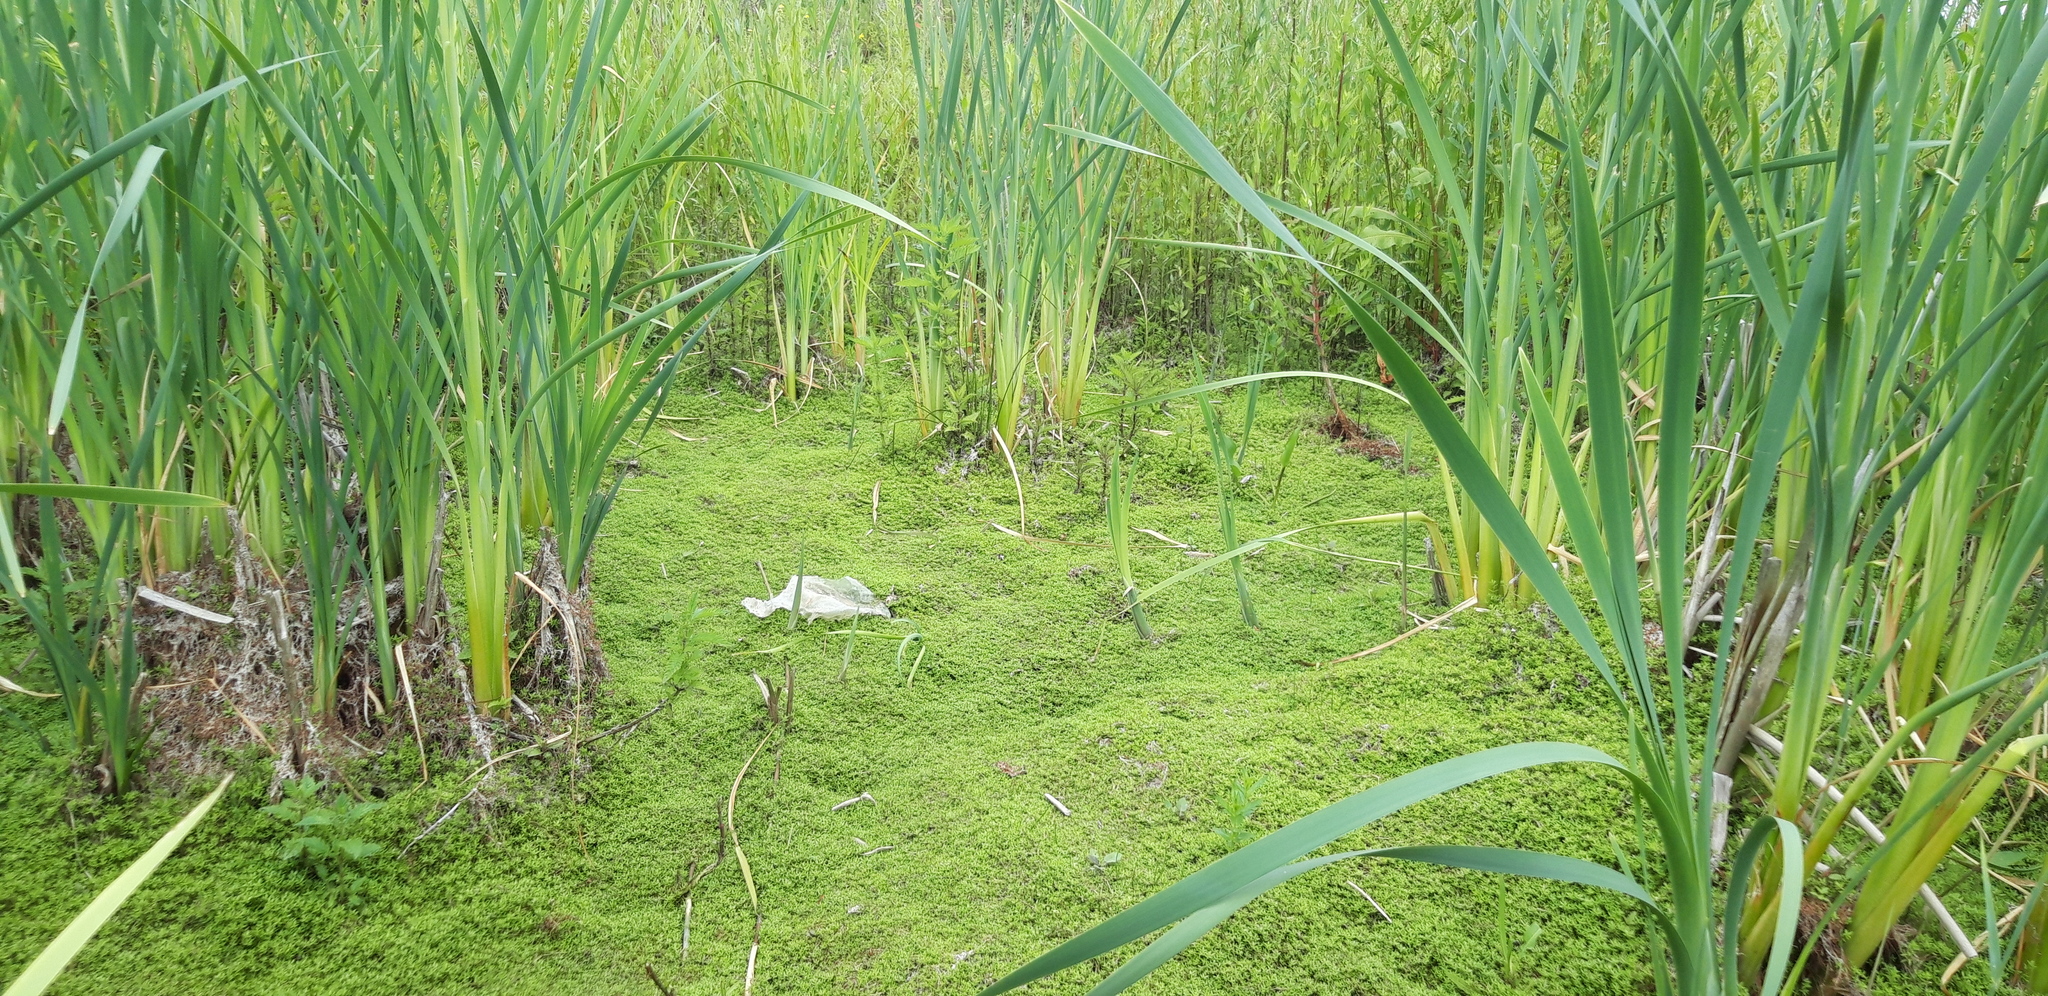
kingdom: Plantae
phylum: Tracheophyta
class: Magnoliopsida
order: Saxifragales
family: Crassulaceae
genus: Crassula
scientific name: Crassula helmsii
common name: New zealand pigmyweed
